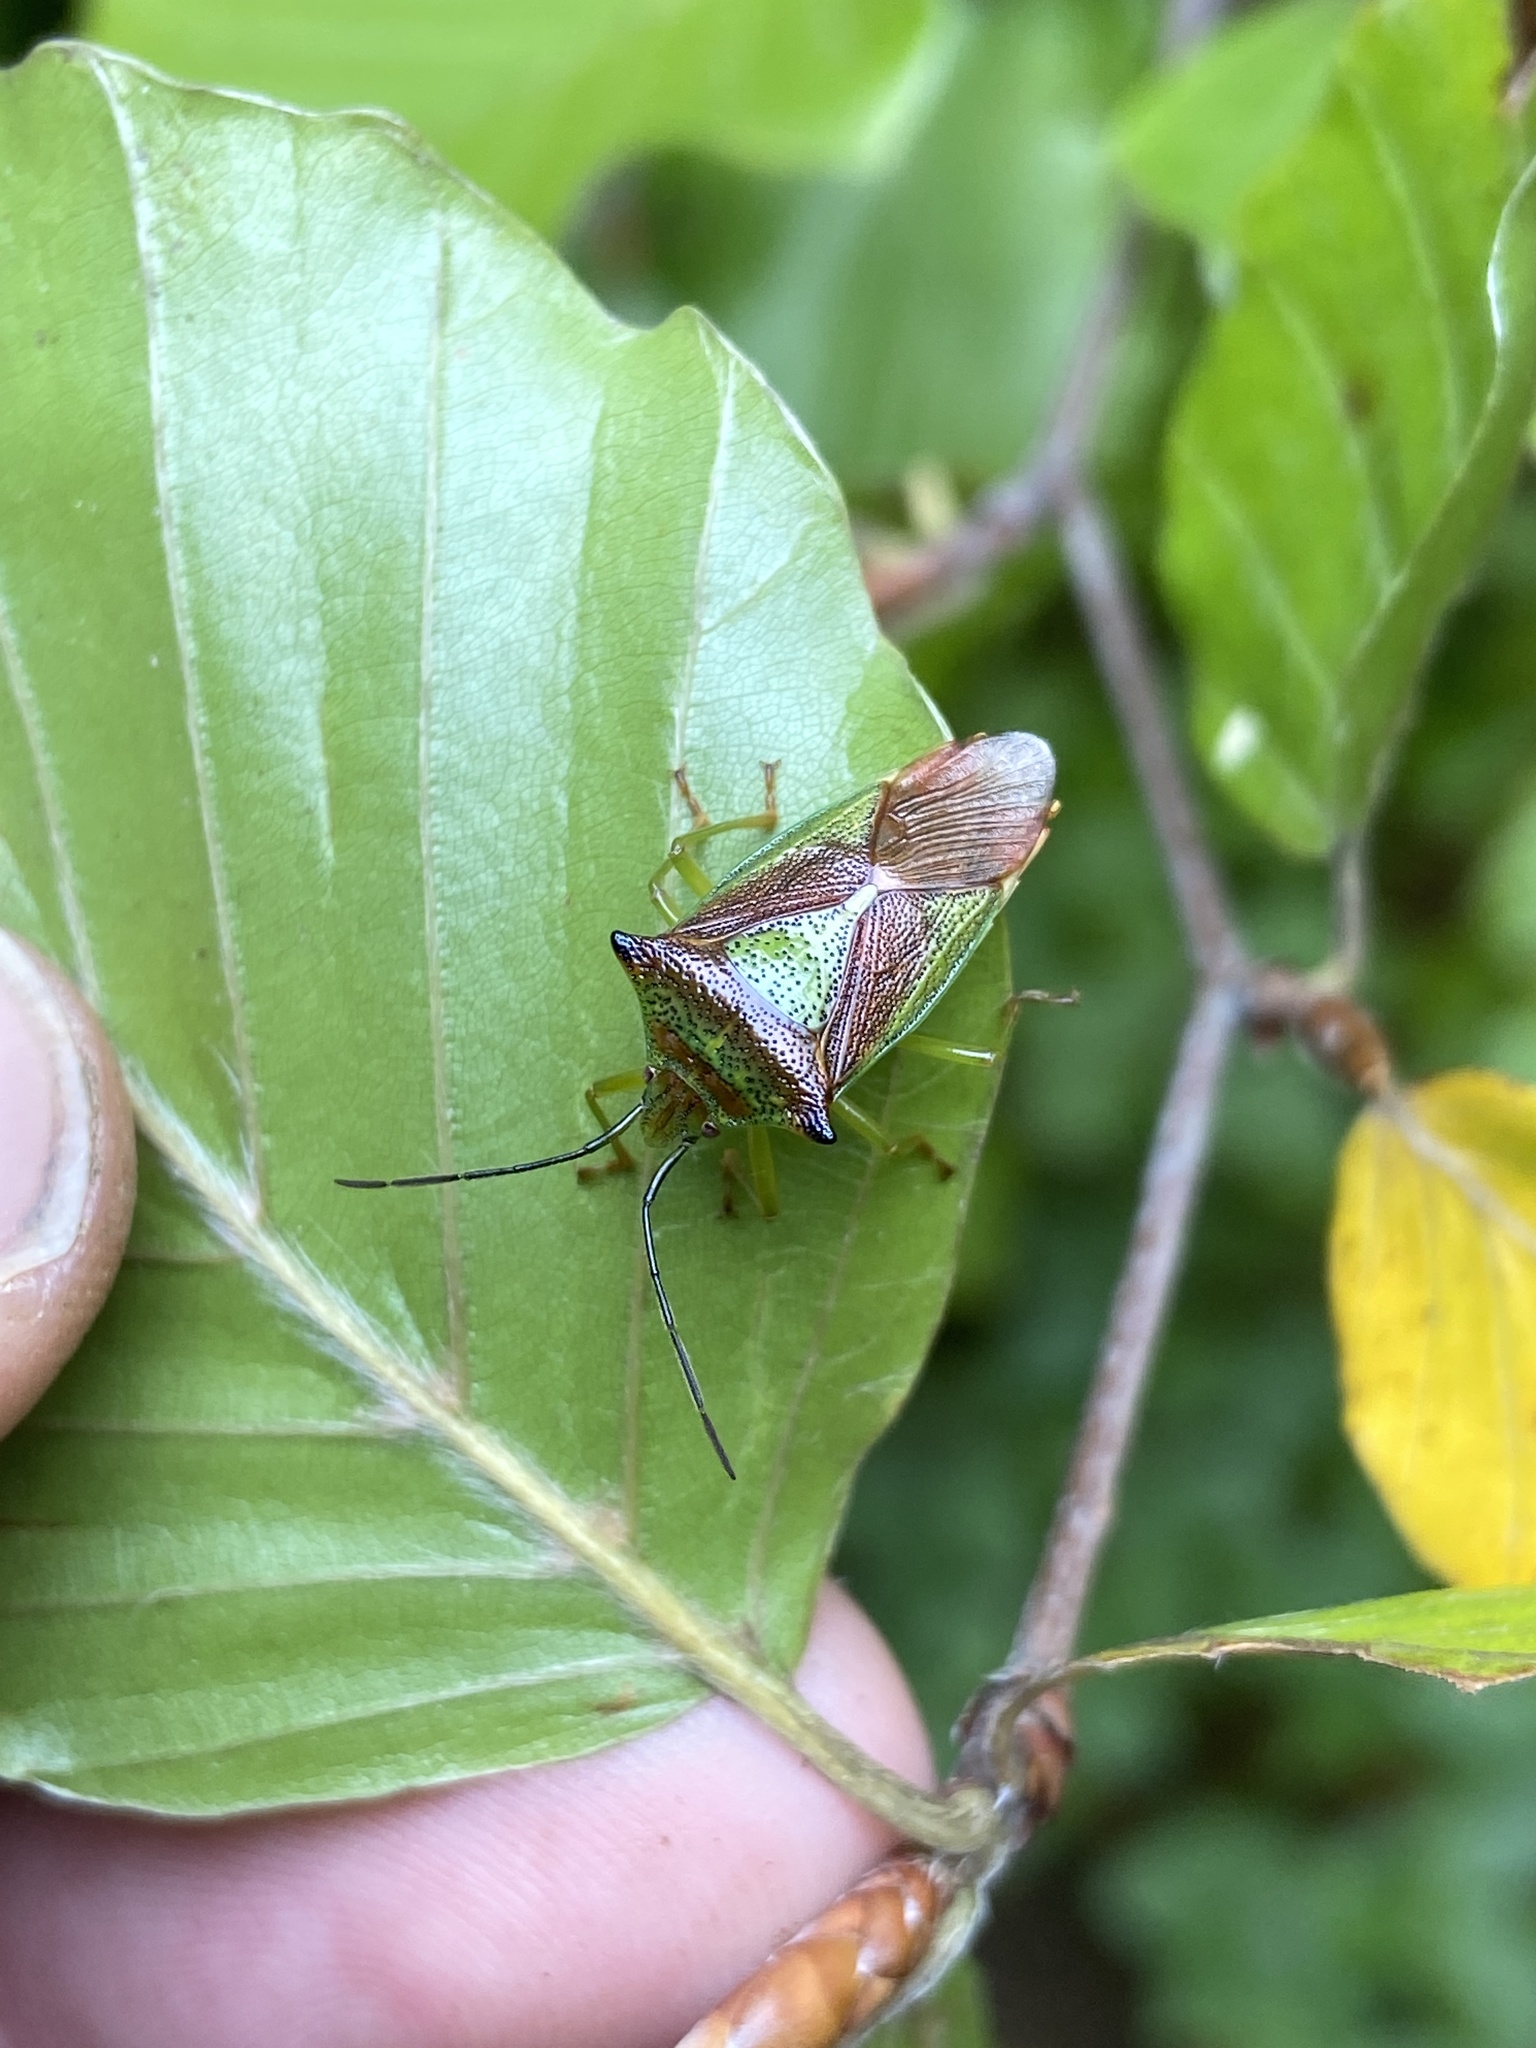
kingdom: Animalia
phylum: Arthropoda
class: Insecta
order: Hemiptera
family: Acanthosomatidae
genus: Acanthosoma
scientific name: Acanthosoma haemorrhoidale
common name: Hawthorn shieldbug
